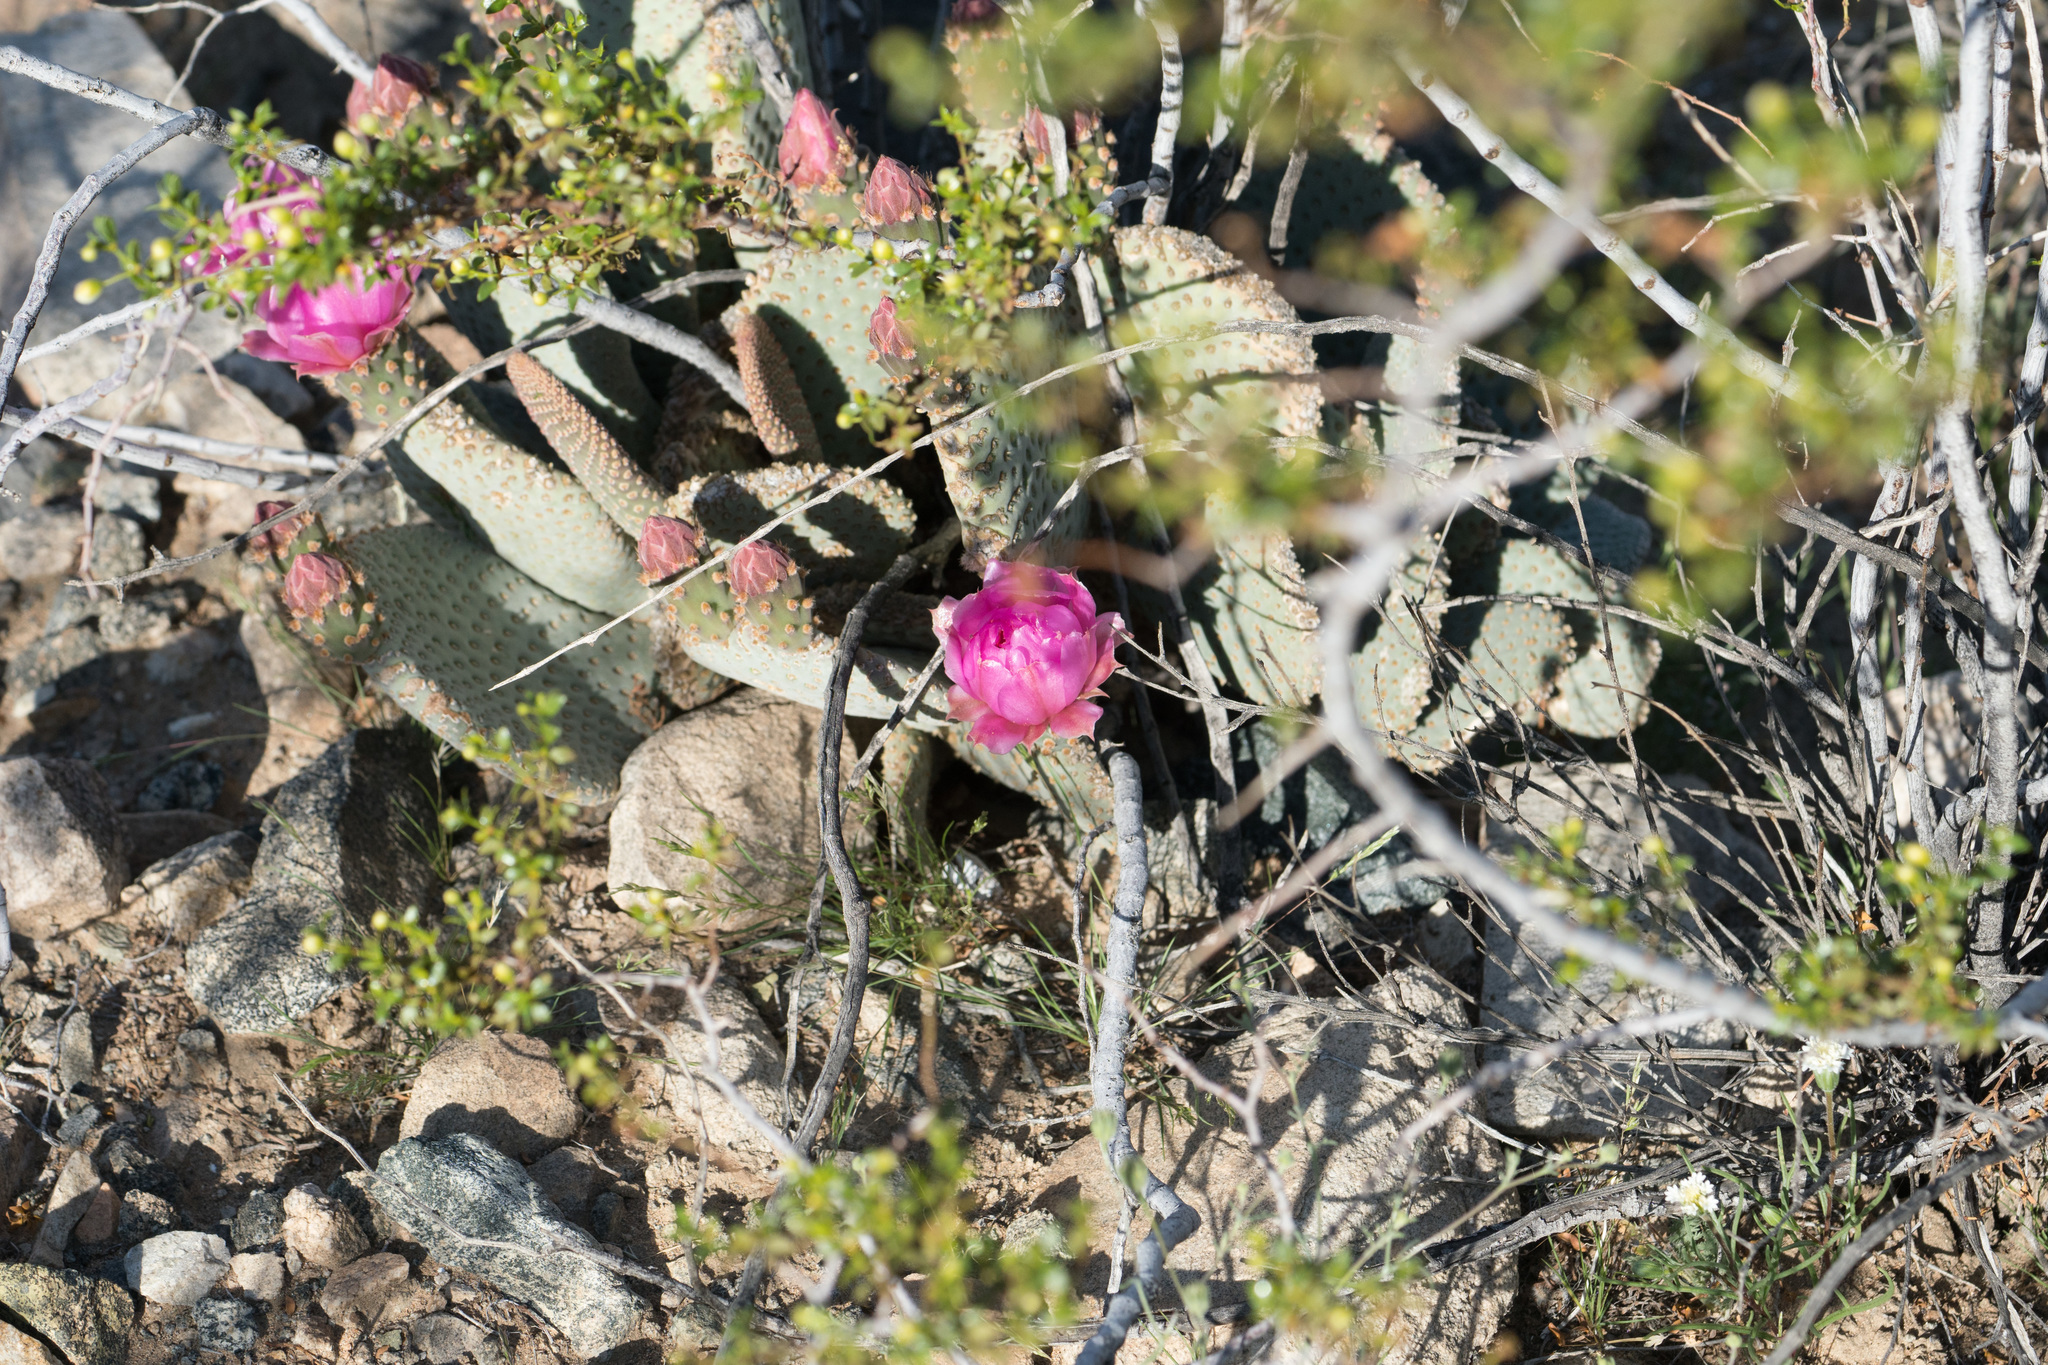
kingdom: Plantae
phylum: Tracheophyta
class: Magnoliopsida
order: Caryophyllales
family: Cactaceae
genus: Opuntia
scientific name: Opuntia basilaris
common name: Beavertail prickly-pear
